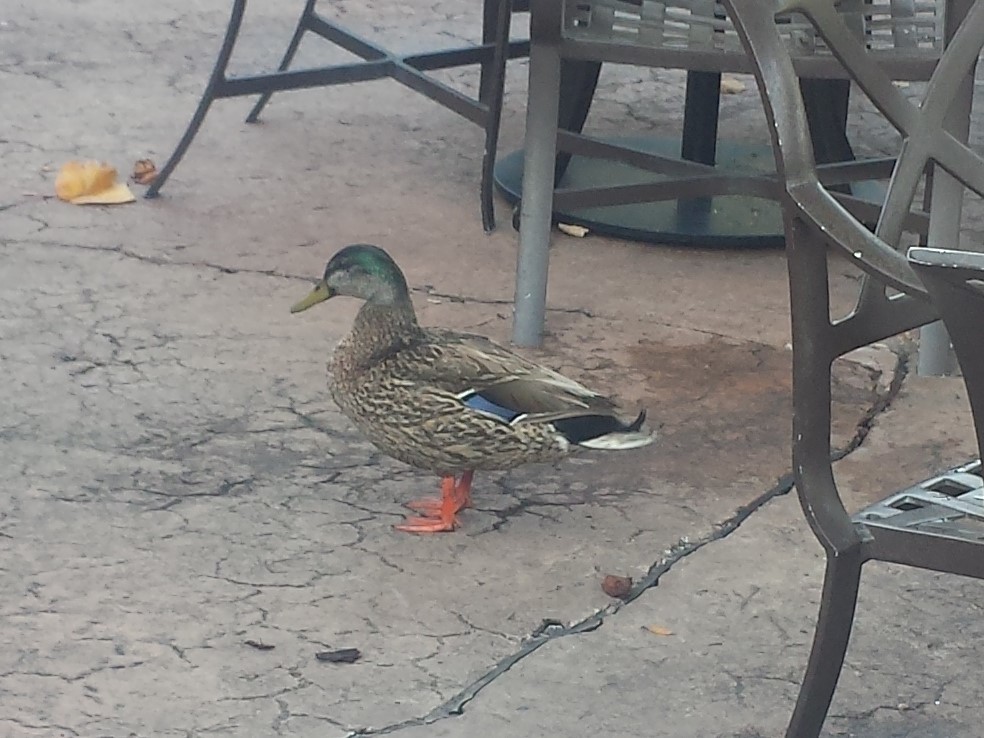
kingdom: Animalia
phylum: Chordata
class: Aves
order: Anseriformes
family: Anatidae
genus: Anas
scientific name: Anas platyrhynchos
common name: Mallard
